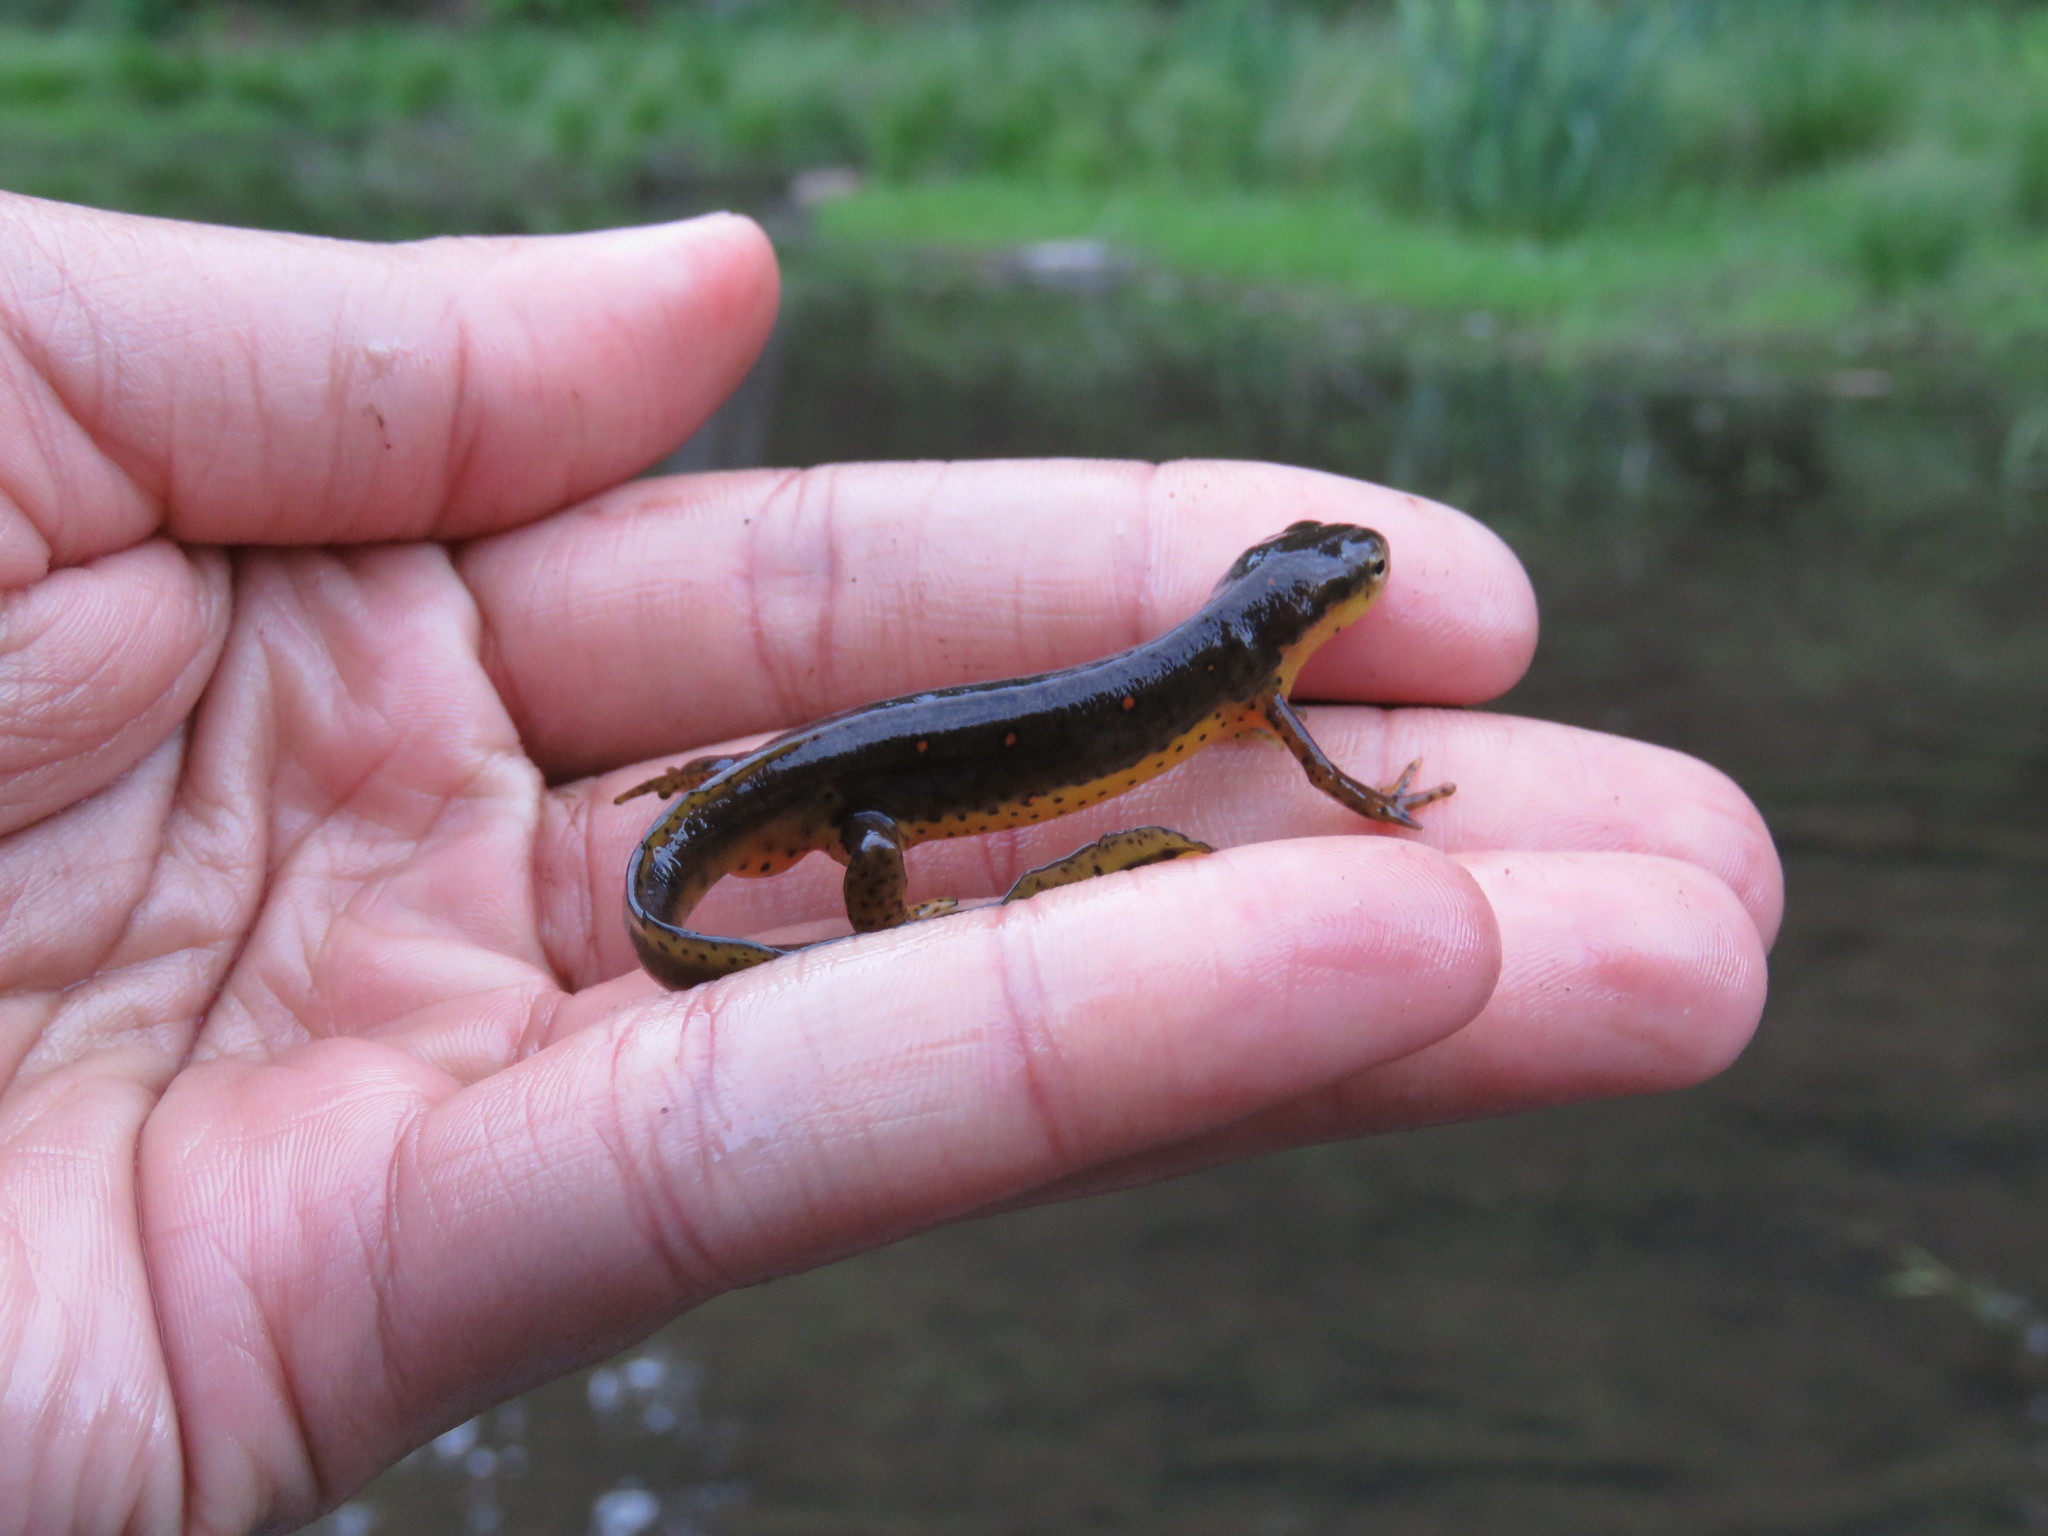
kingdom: Animalia
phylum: Chordata
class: Amphibia
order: Caudata
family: Salamandridae
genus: Notophthalmus
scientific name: Notophthalmus viridescens
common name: Eastern newt
